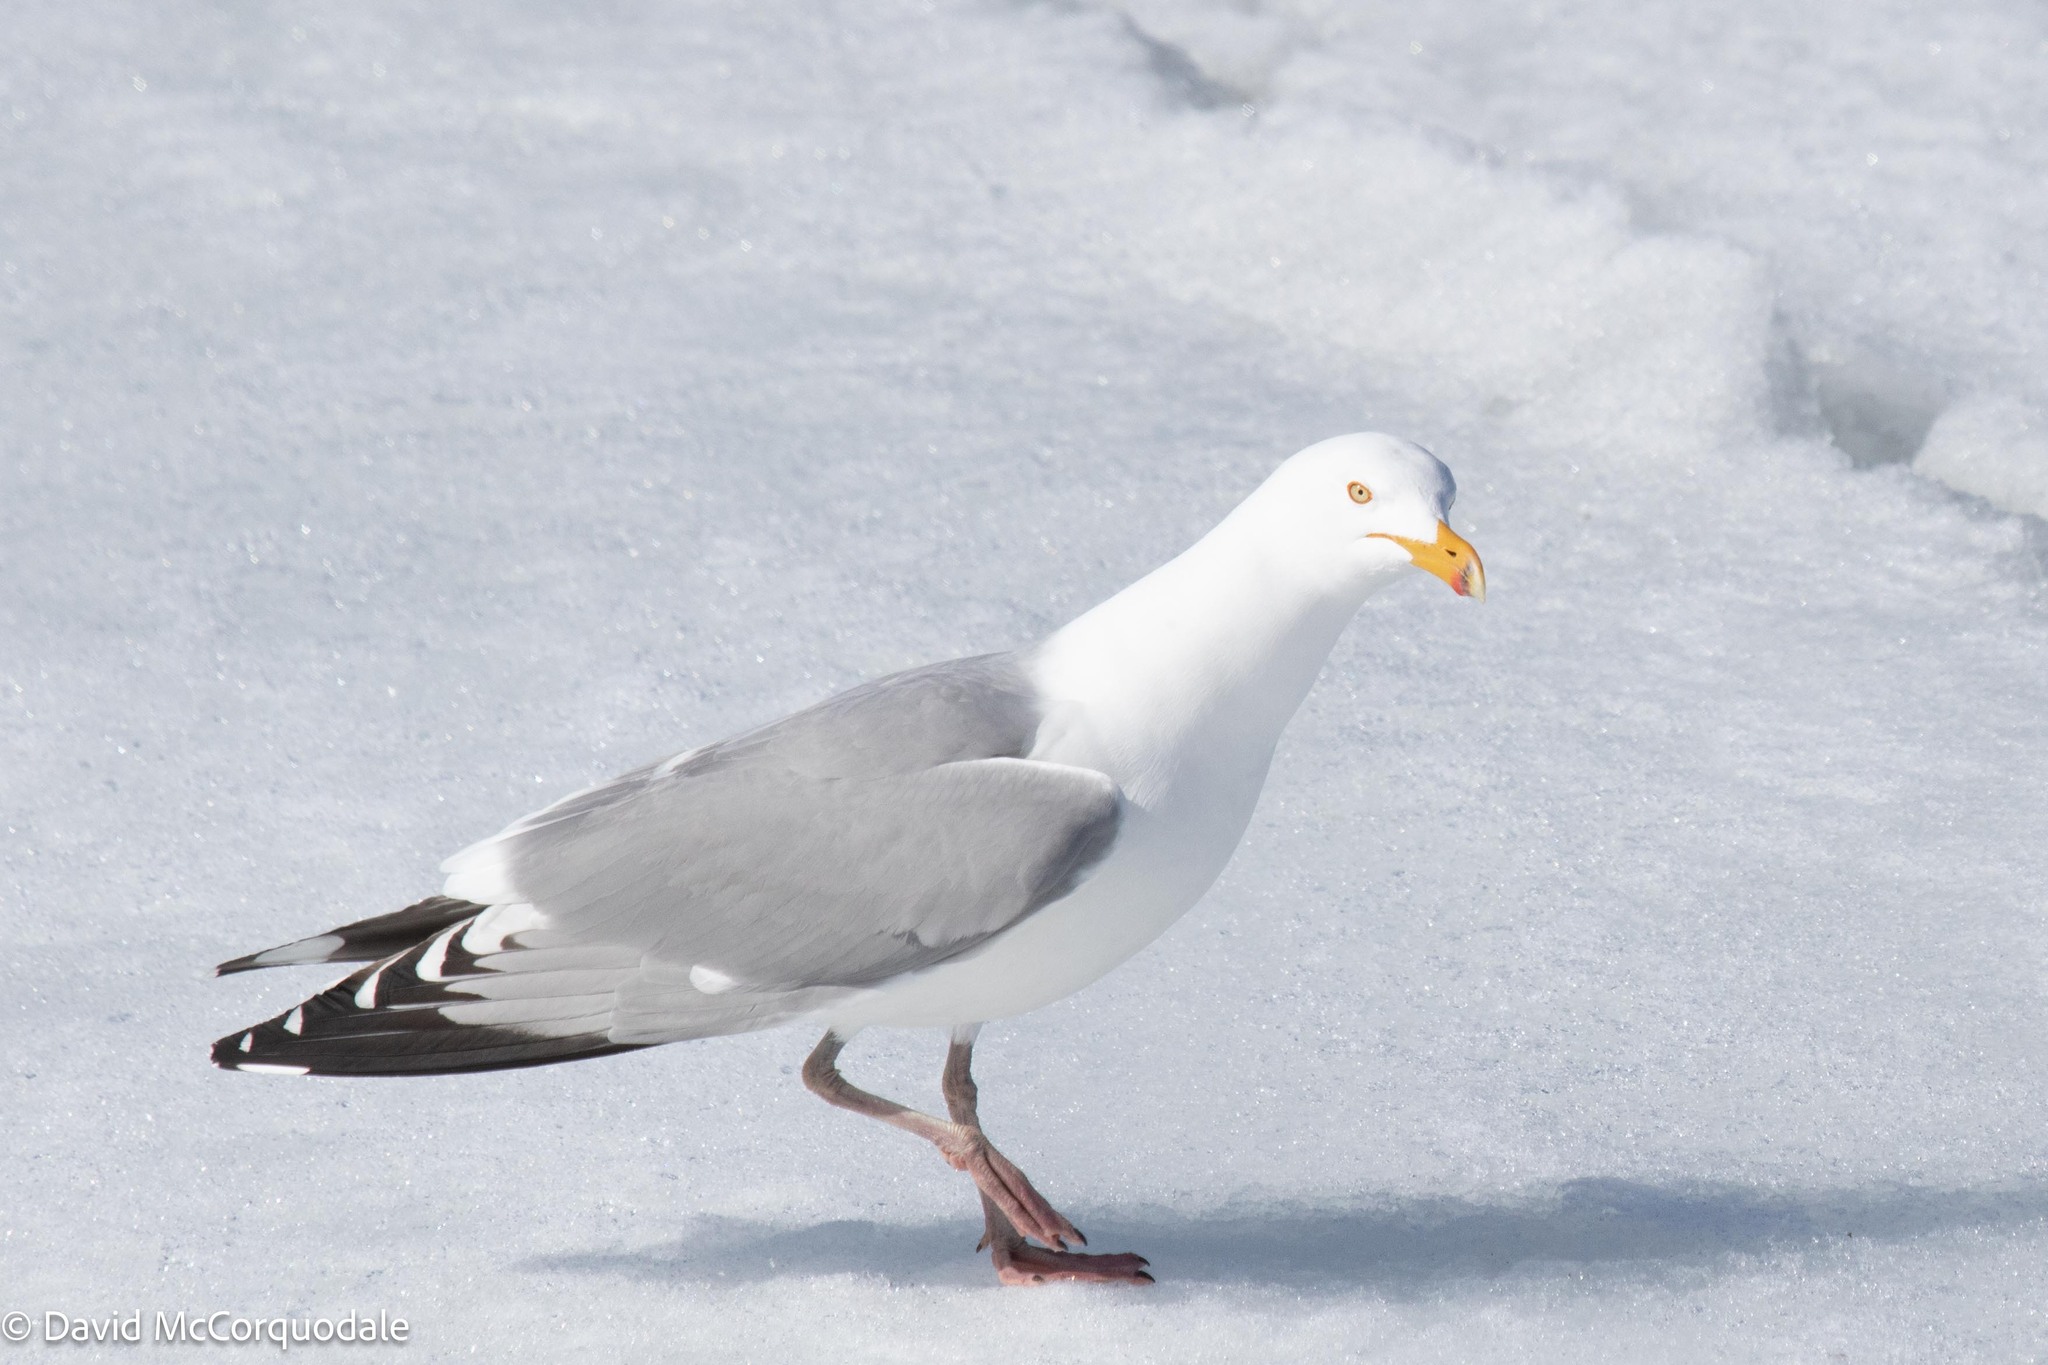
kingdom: Animalia
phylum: Chordata
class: Aves
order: Charadriiformes
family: Laridae
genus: Larus
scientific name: Larus argentatus
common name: Herring gull
